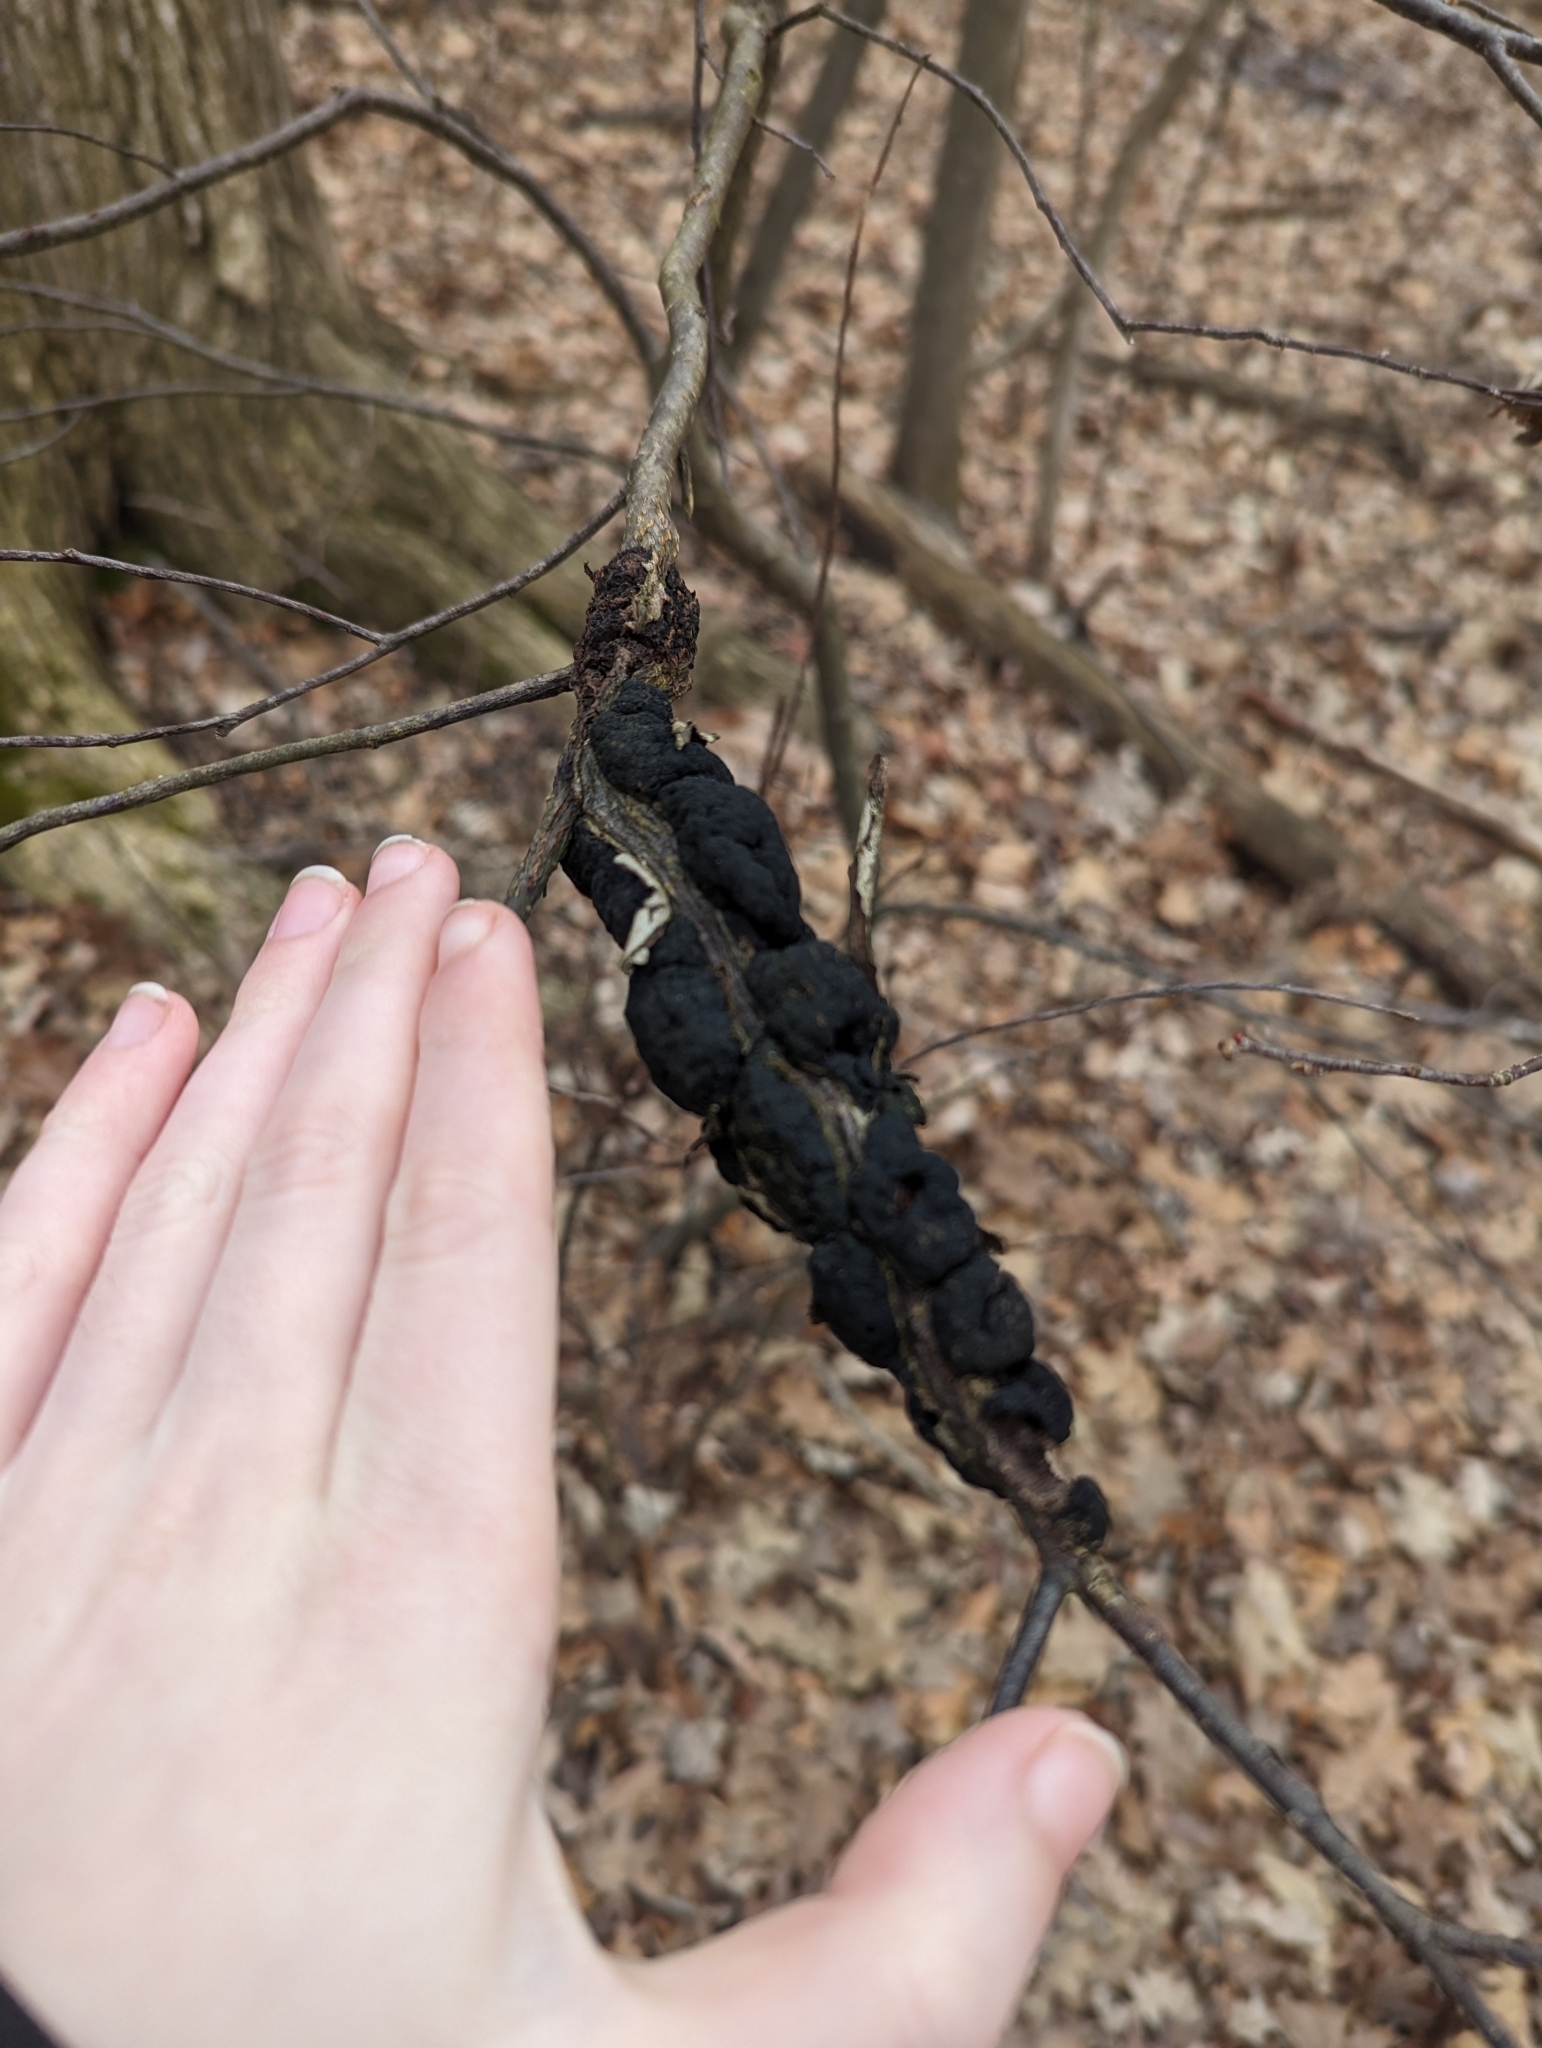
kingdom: Fungi
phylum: Ascomycota
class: Dothideomycetes
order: Venturiales
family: Venturiaceae
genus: Apiosporina
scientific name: Apiosporina morbosa
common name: Black knot
